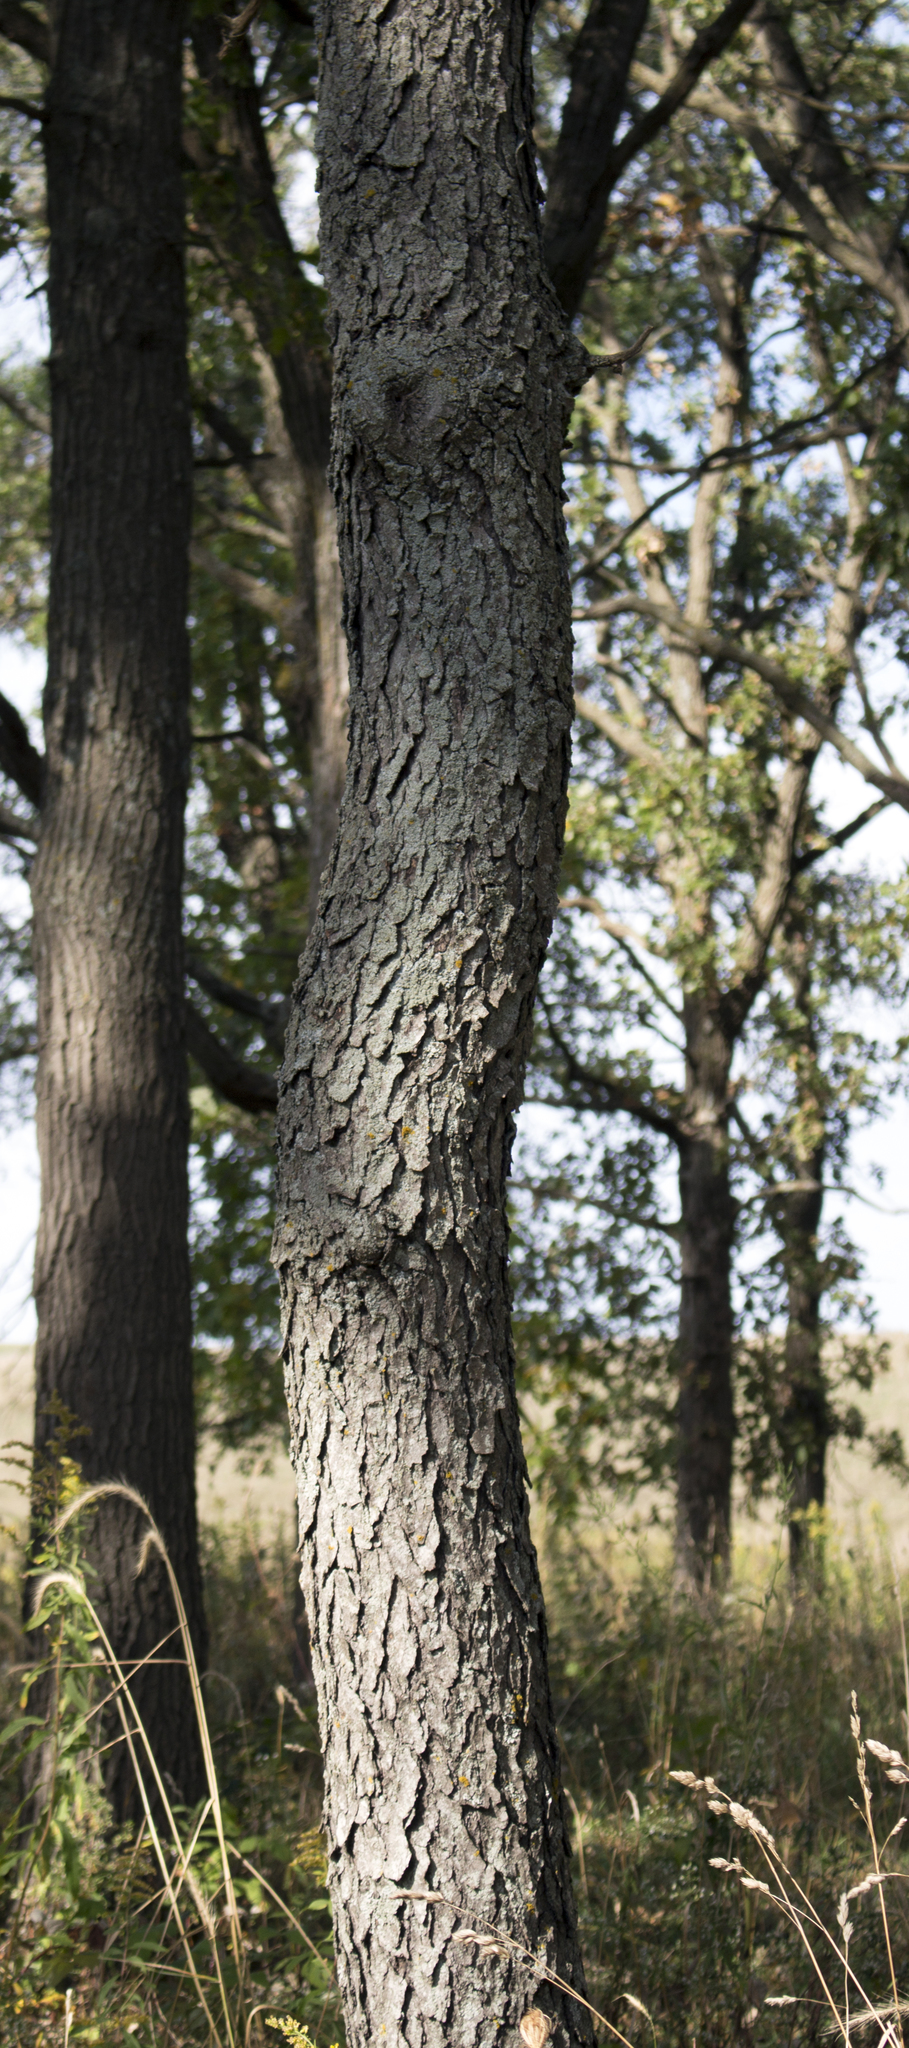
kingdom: Plantae
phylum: Tracheophyta
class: Magnoliopsida
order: Rosales
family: Rosaceae
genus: Prunus
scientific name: Prunus serotina
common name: Black cherry
